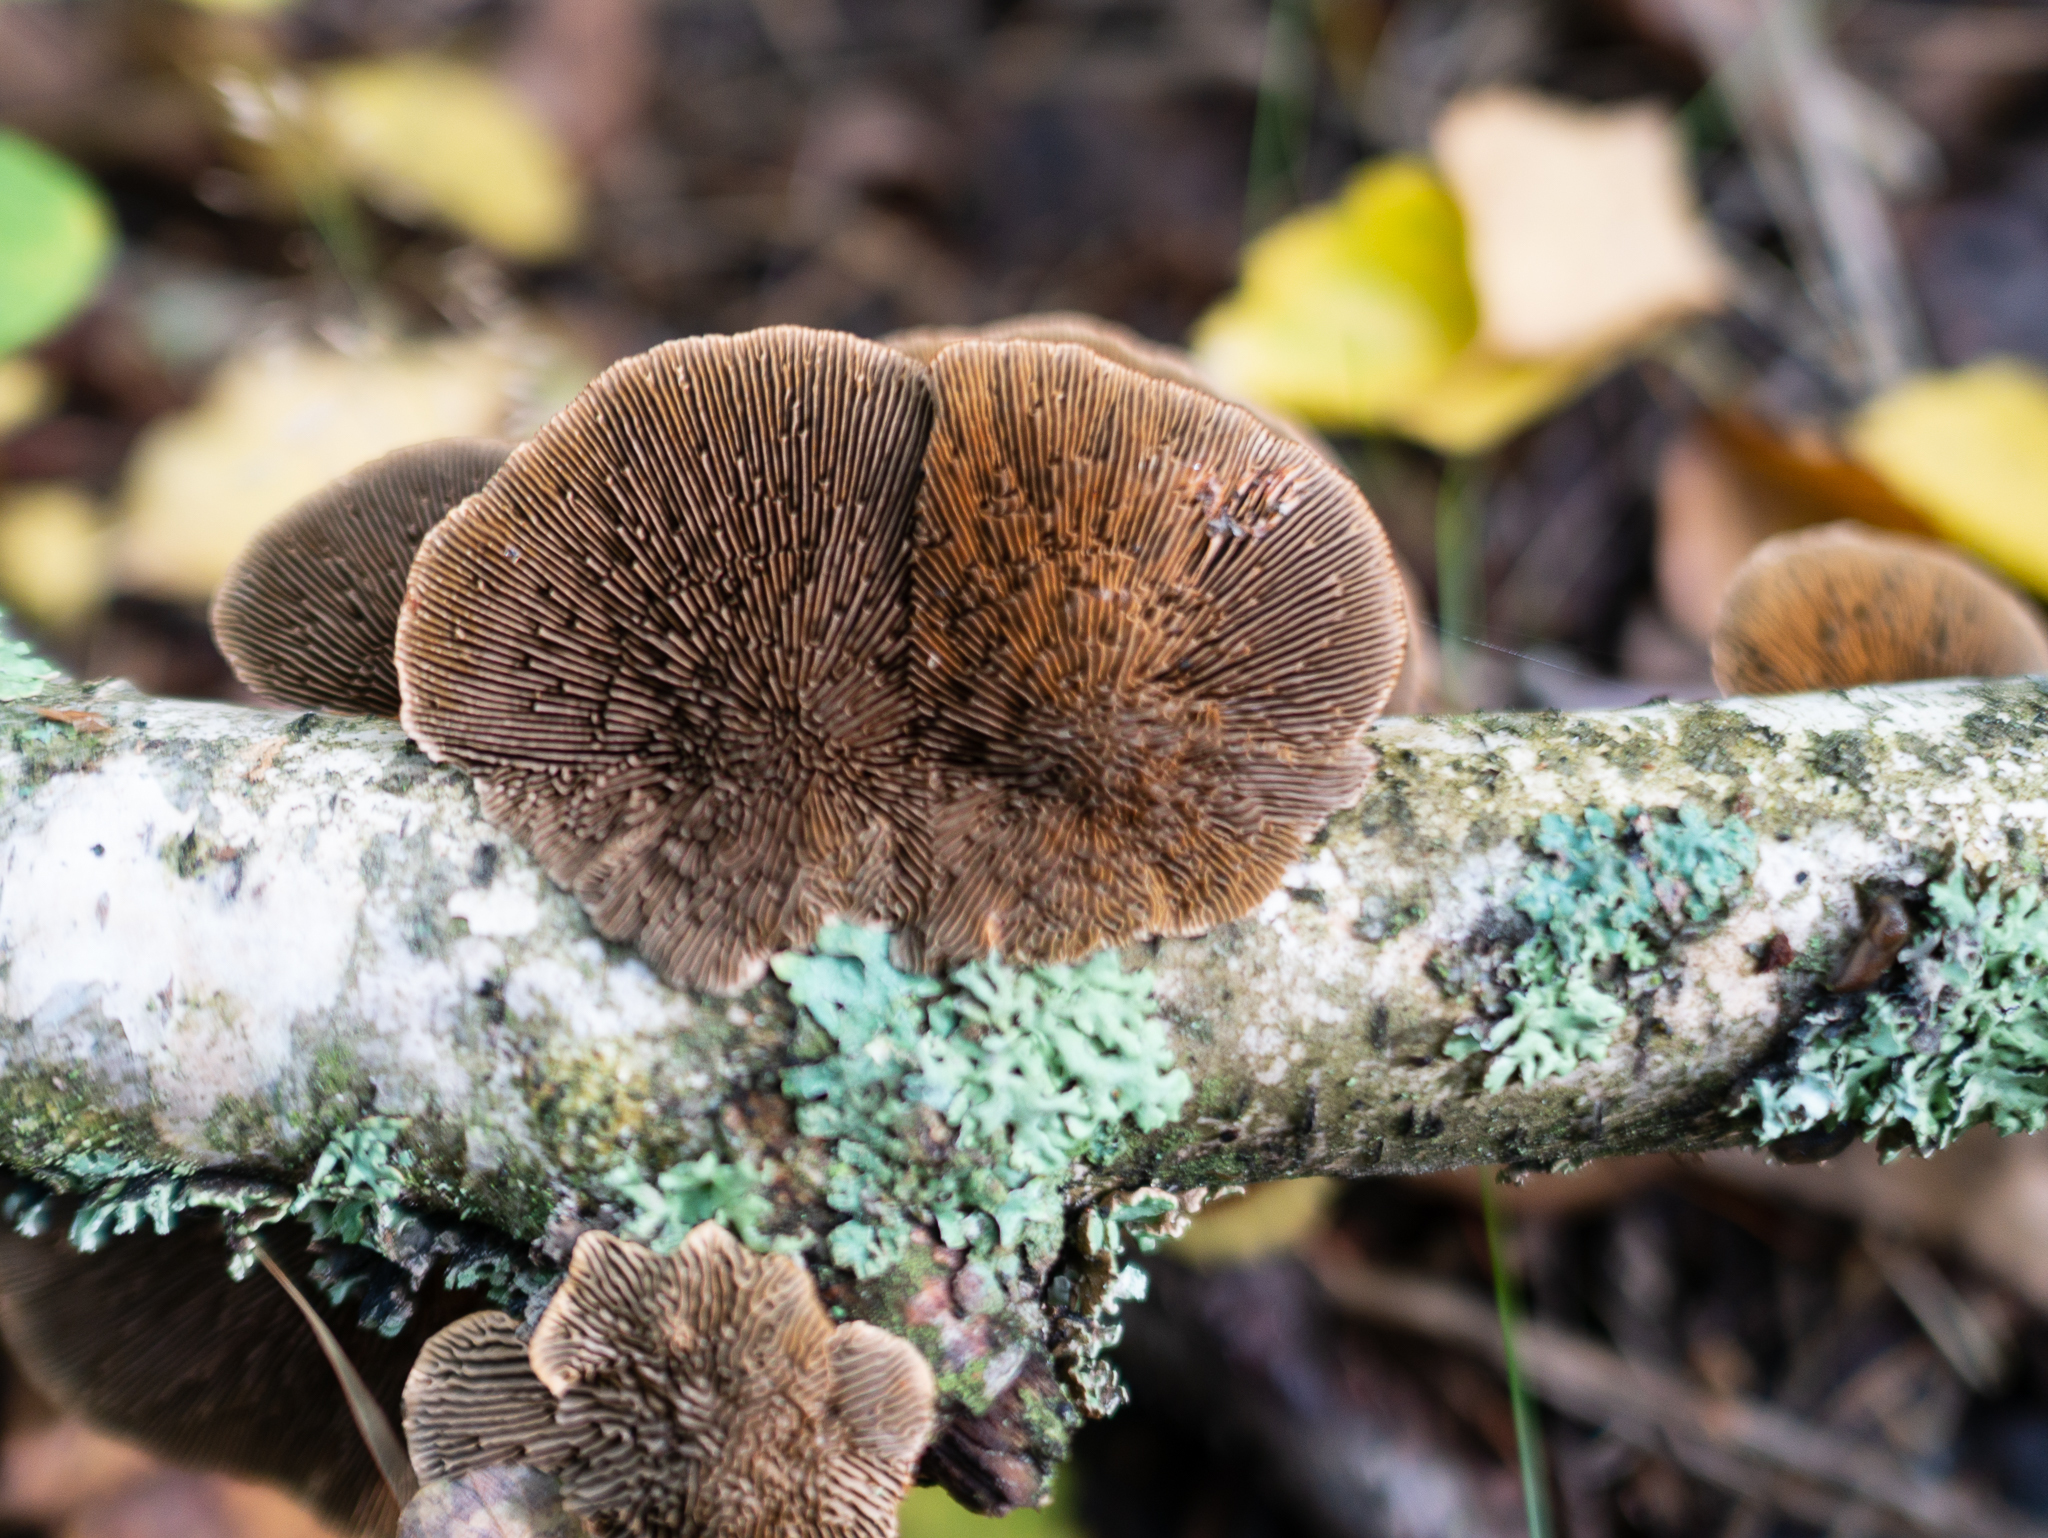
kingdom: Fungi
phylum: Basidiomycota
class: Agaricomycetes
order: Polyporales
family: Polyporaceae
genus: Daedaleopsis
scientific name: Daedaleopsis tricolor
